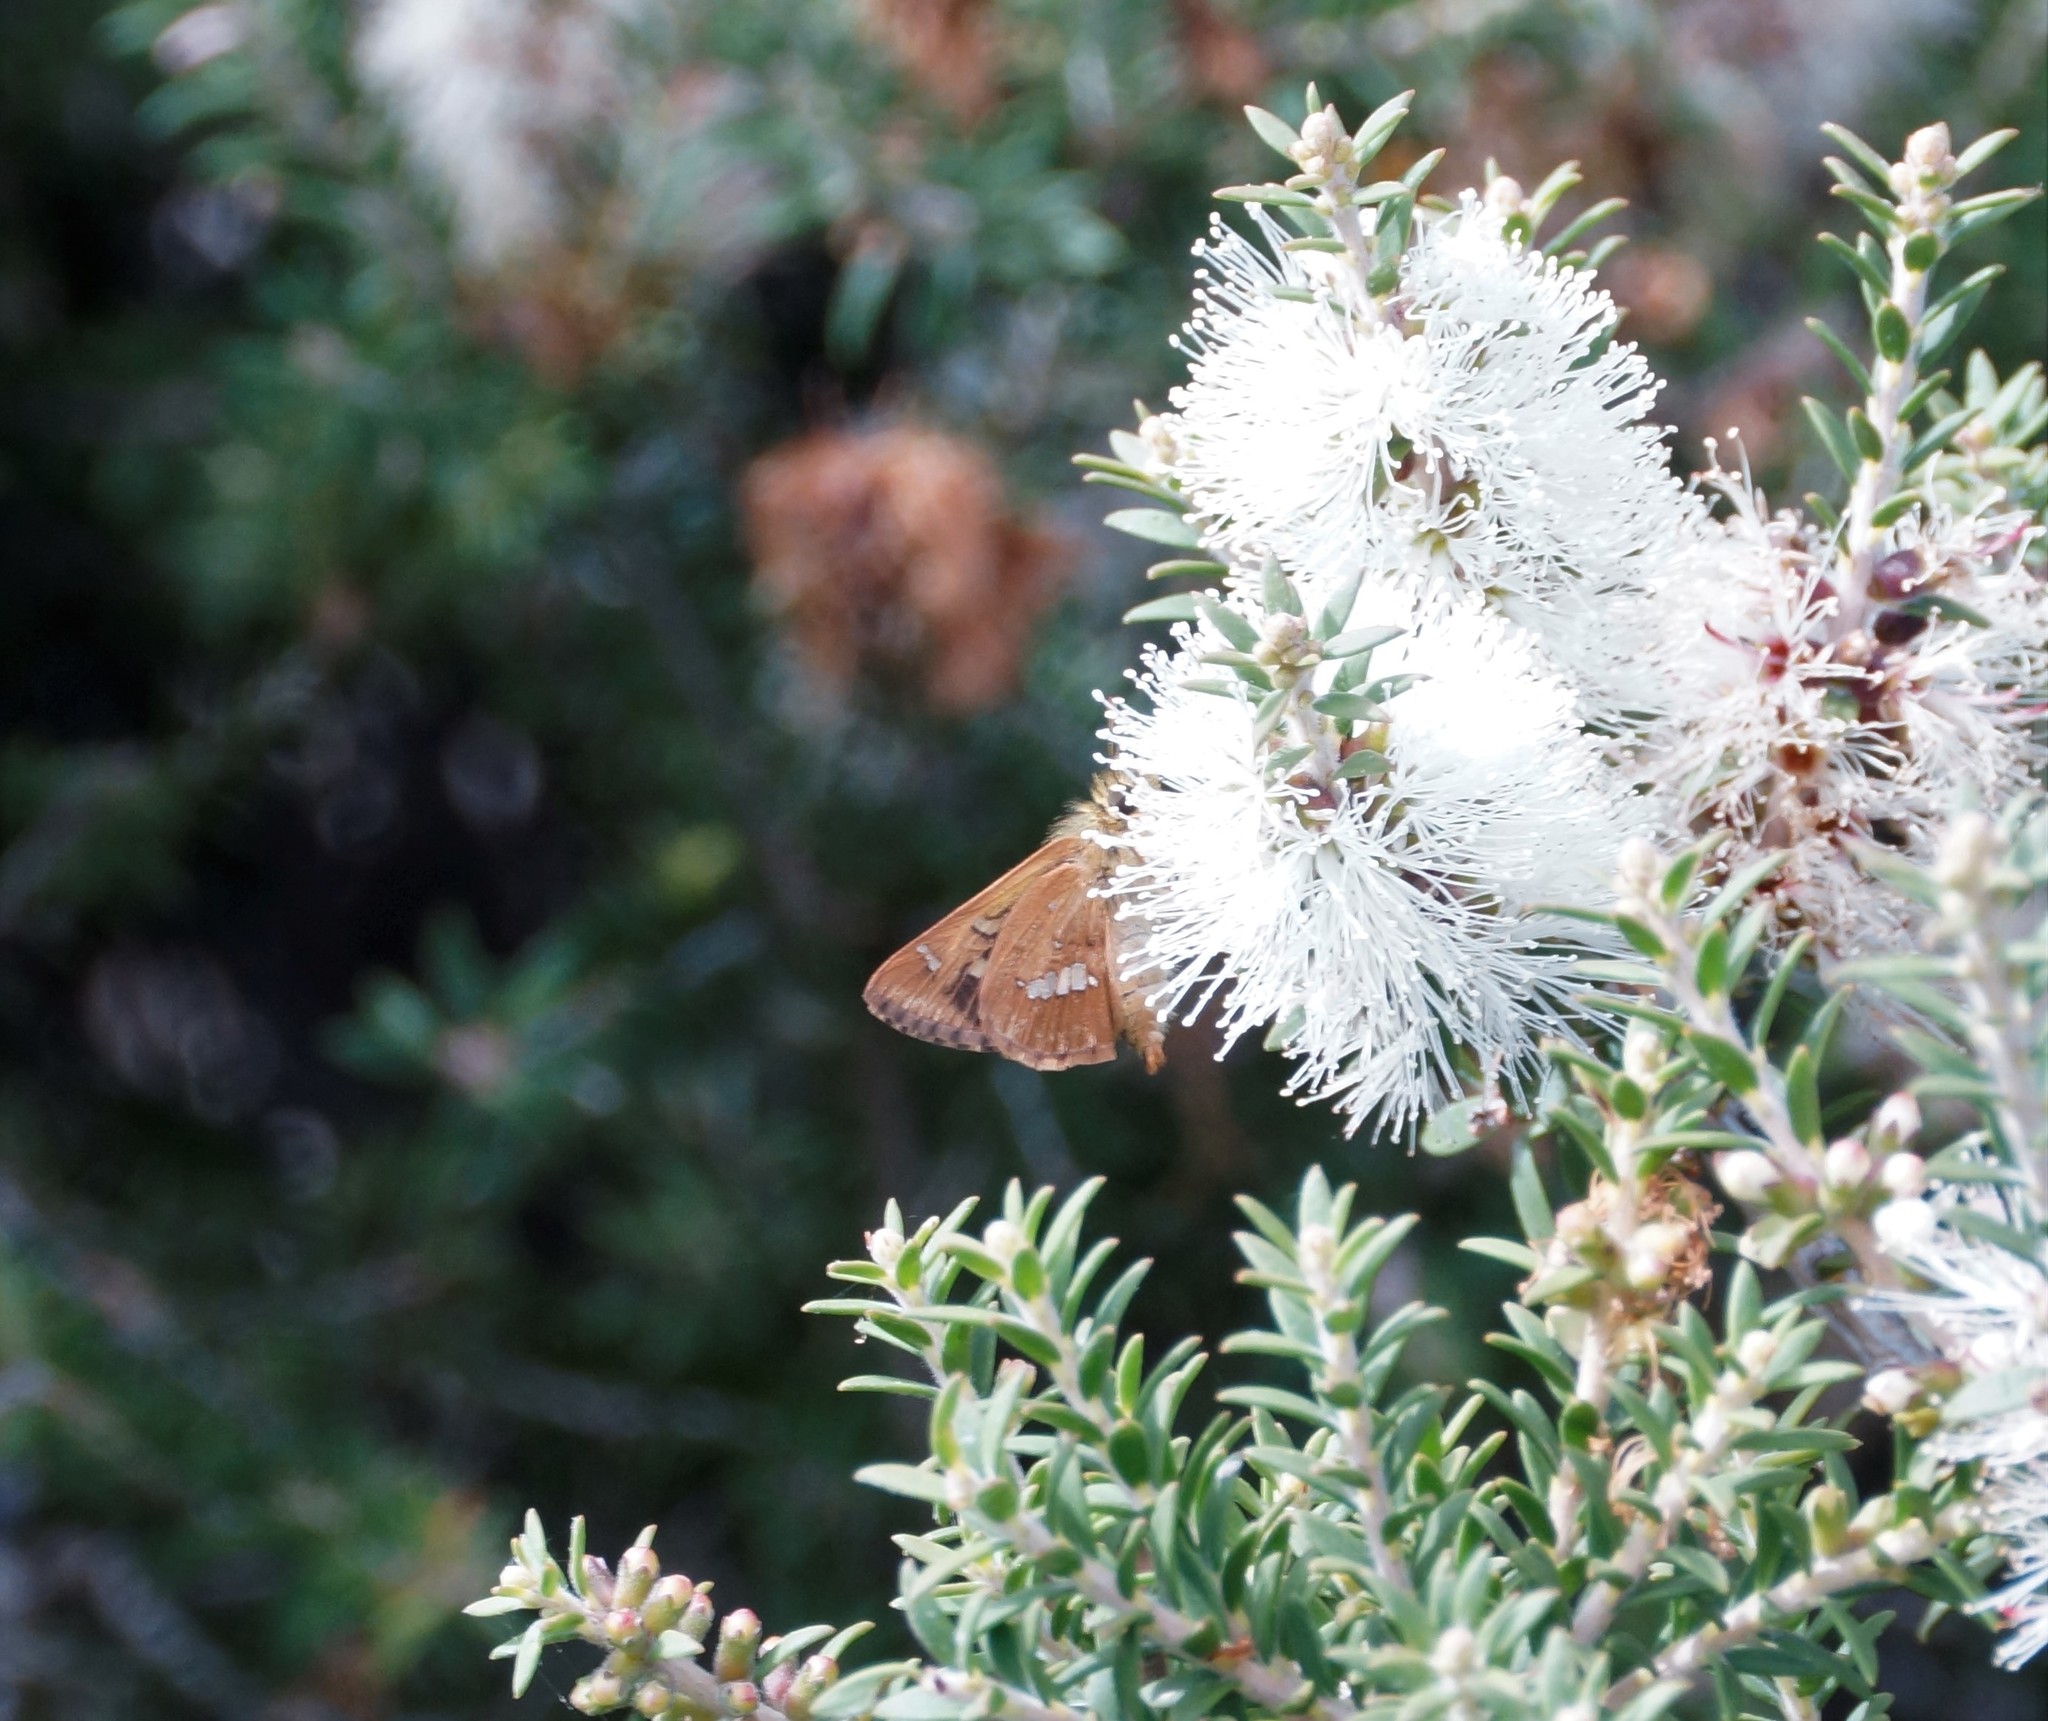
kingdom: Animalia
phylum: Arthropoda
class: Insecta
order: Lepidoptera
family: Hesperiidae
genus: Dispar
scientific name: Dispar compacta
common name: Barred skipper
